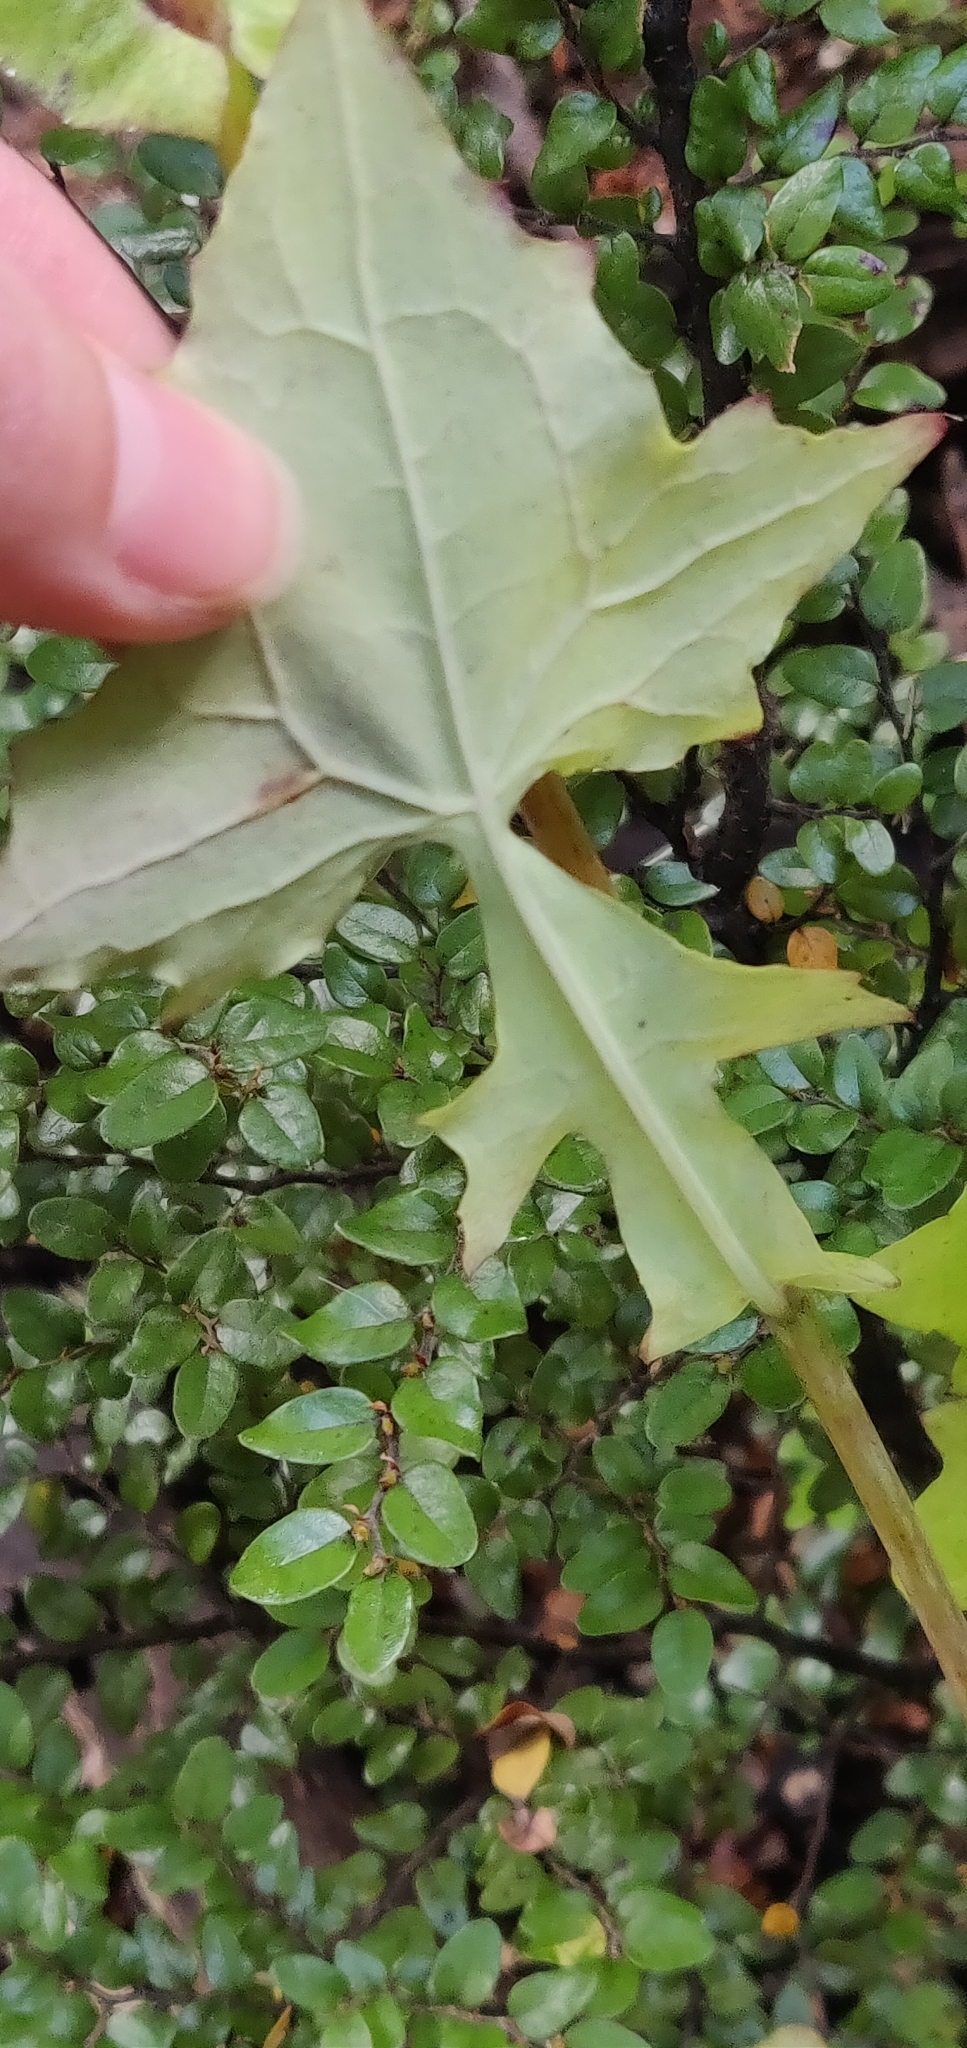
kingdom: Plantae
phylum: Tracheophyta
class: Magnoliopsida
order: Asterales
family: Asteraceae
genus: Mycelis
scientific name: Mycelis muralis
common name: Wall lettuce
